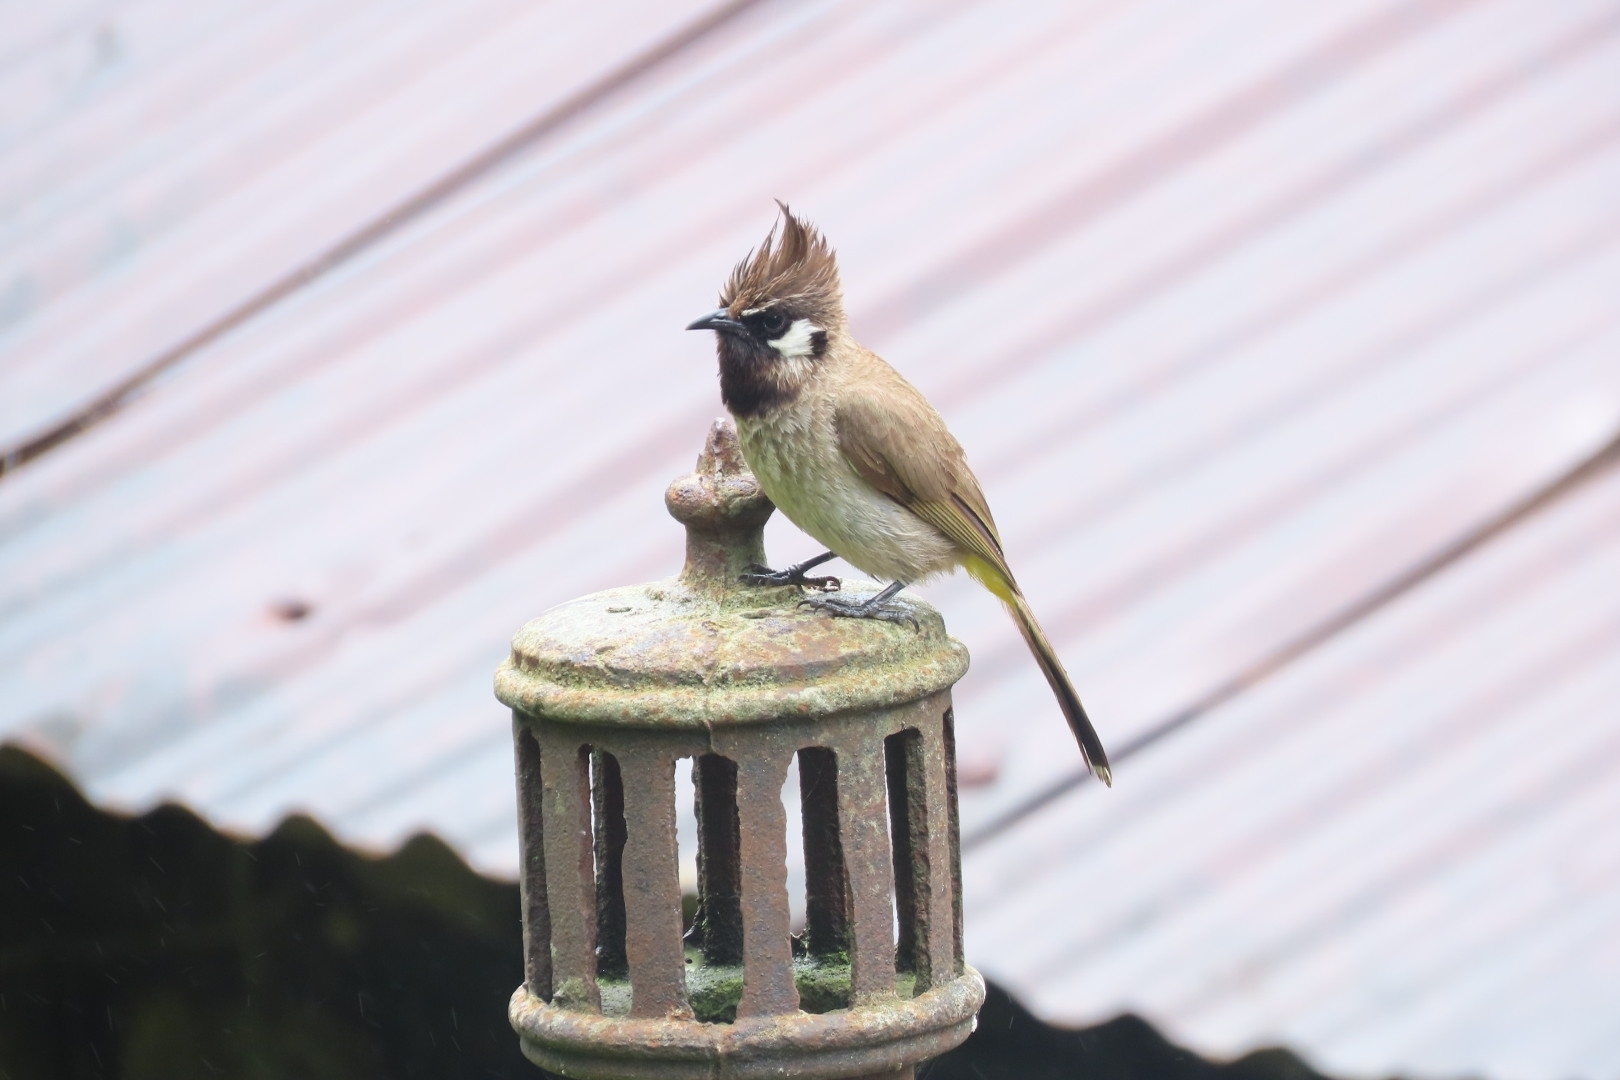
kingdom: Animalia
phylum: Chordata
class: Aves
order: Passeriformes
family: Pycnonotidae
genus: Pycnonotus
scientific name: Pycnonotus leucogenys
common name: Himalayan bulbul
